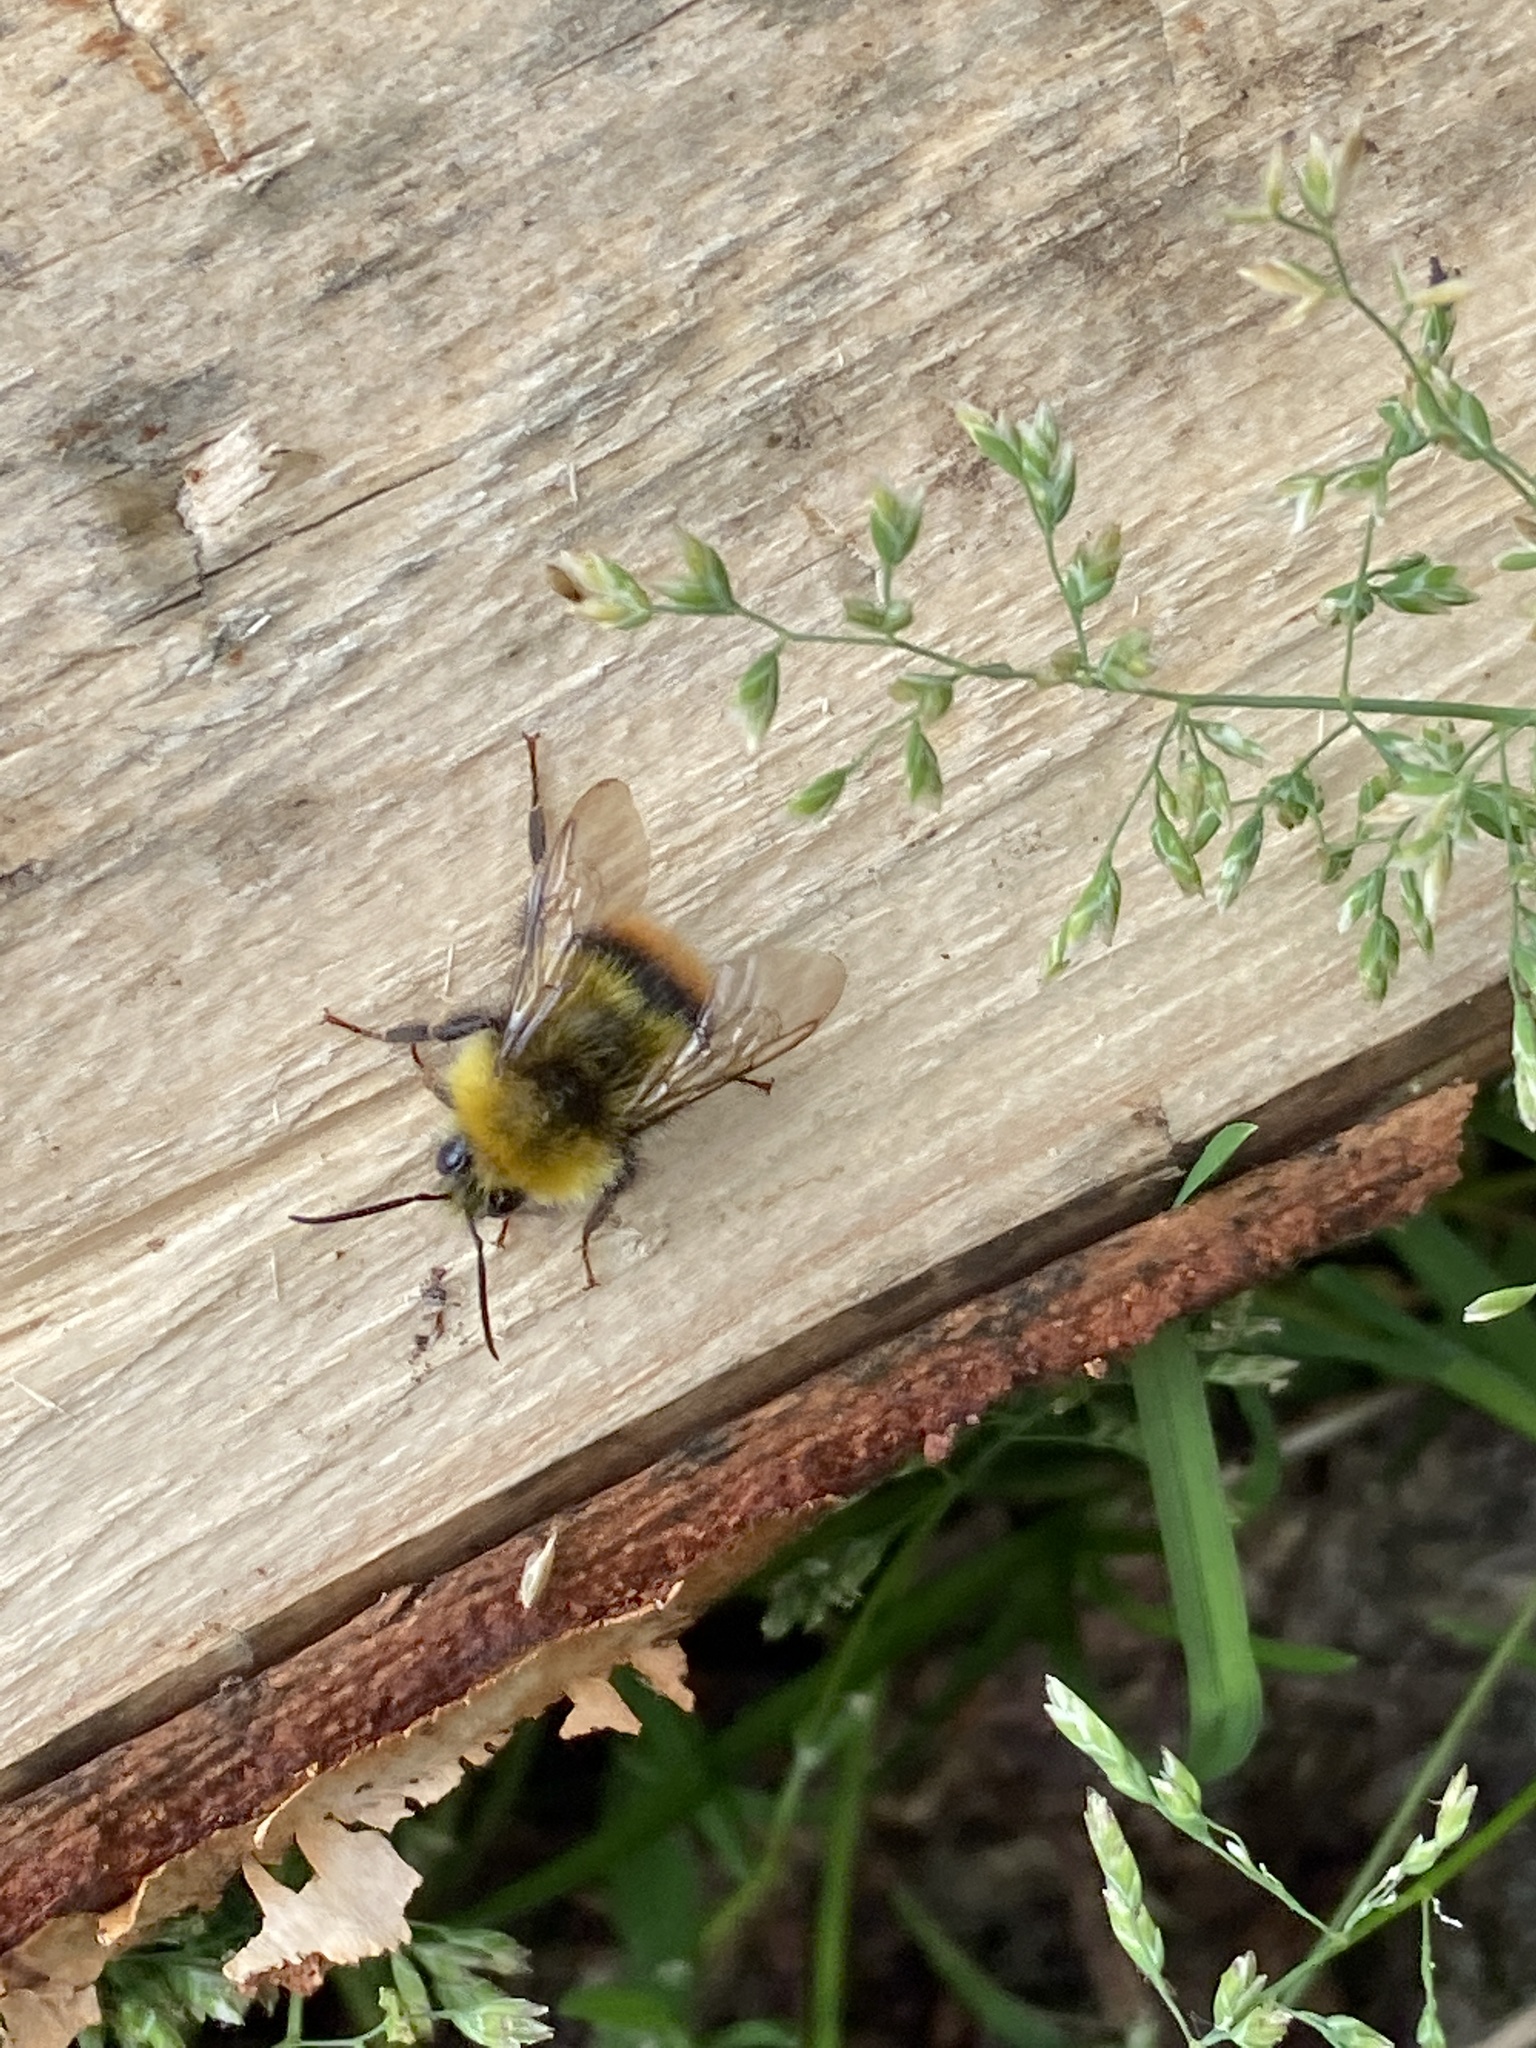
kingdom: Animalia
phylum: Arthropoda
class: Insecta
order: Hymenoptera
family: Apidae
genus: Bombus
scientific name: Bombus pratorum
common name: Early humble-bee
